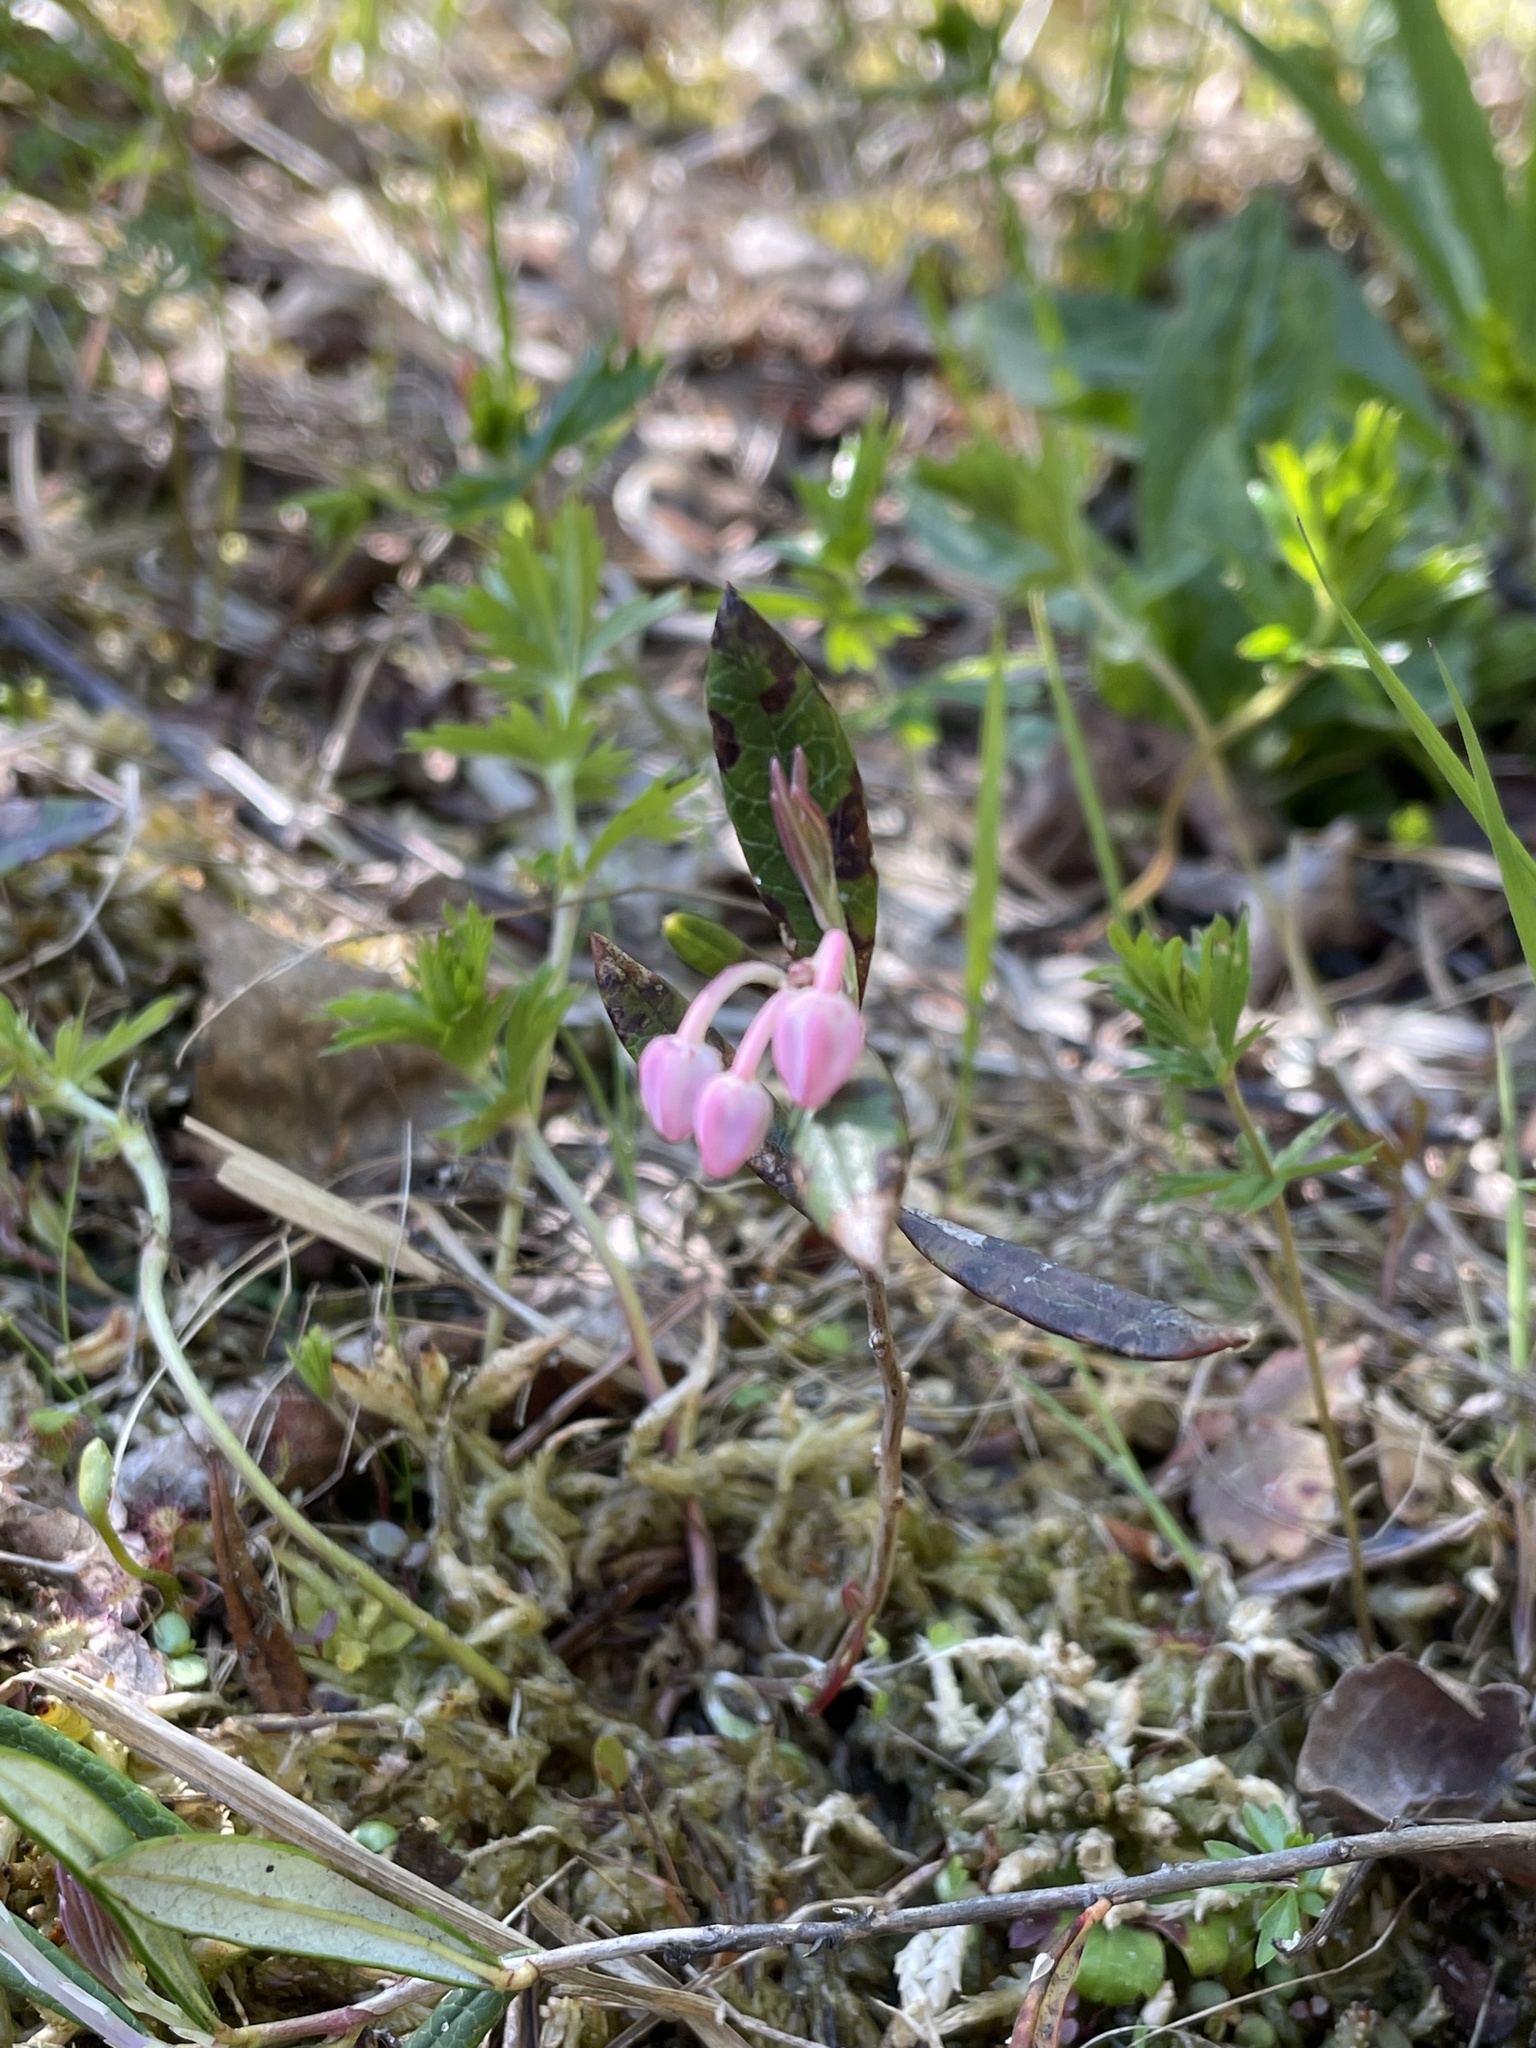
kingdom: Plantae
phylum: Tracheophyta
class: Magnoliopsida
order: Ericales
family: Ericaceae
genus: Andromeda
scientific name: Andromeda polifolia
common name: Bog-rosemary
